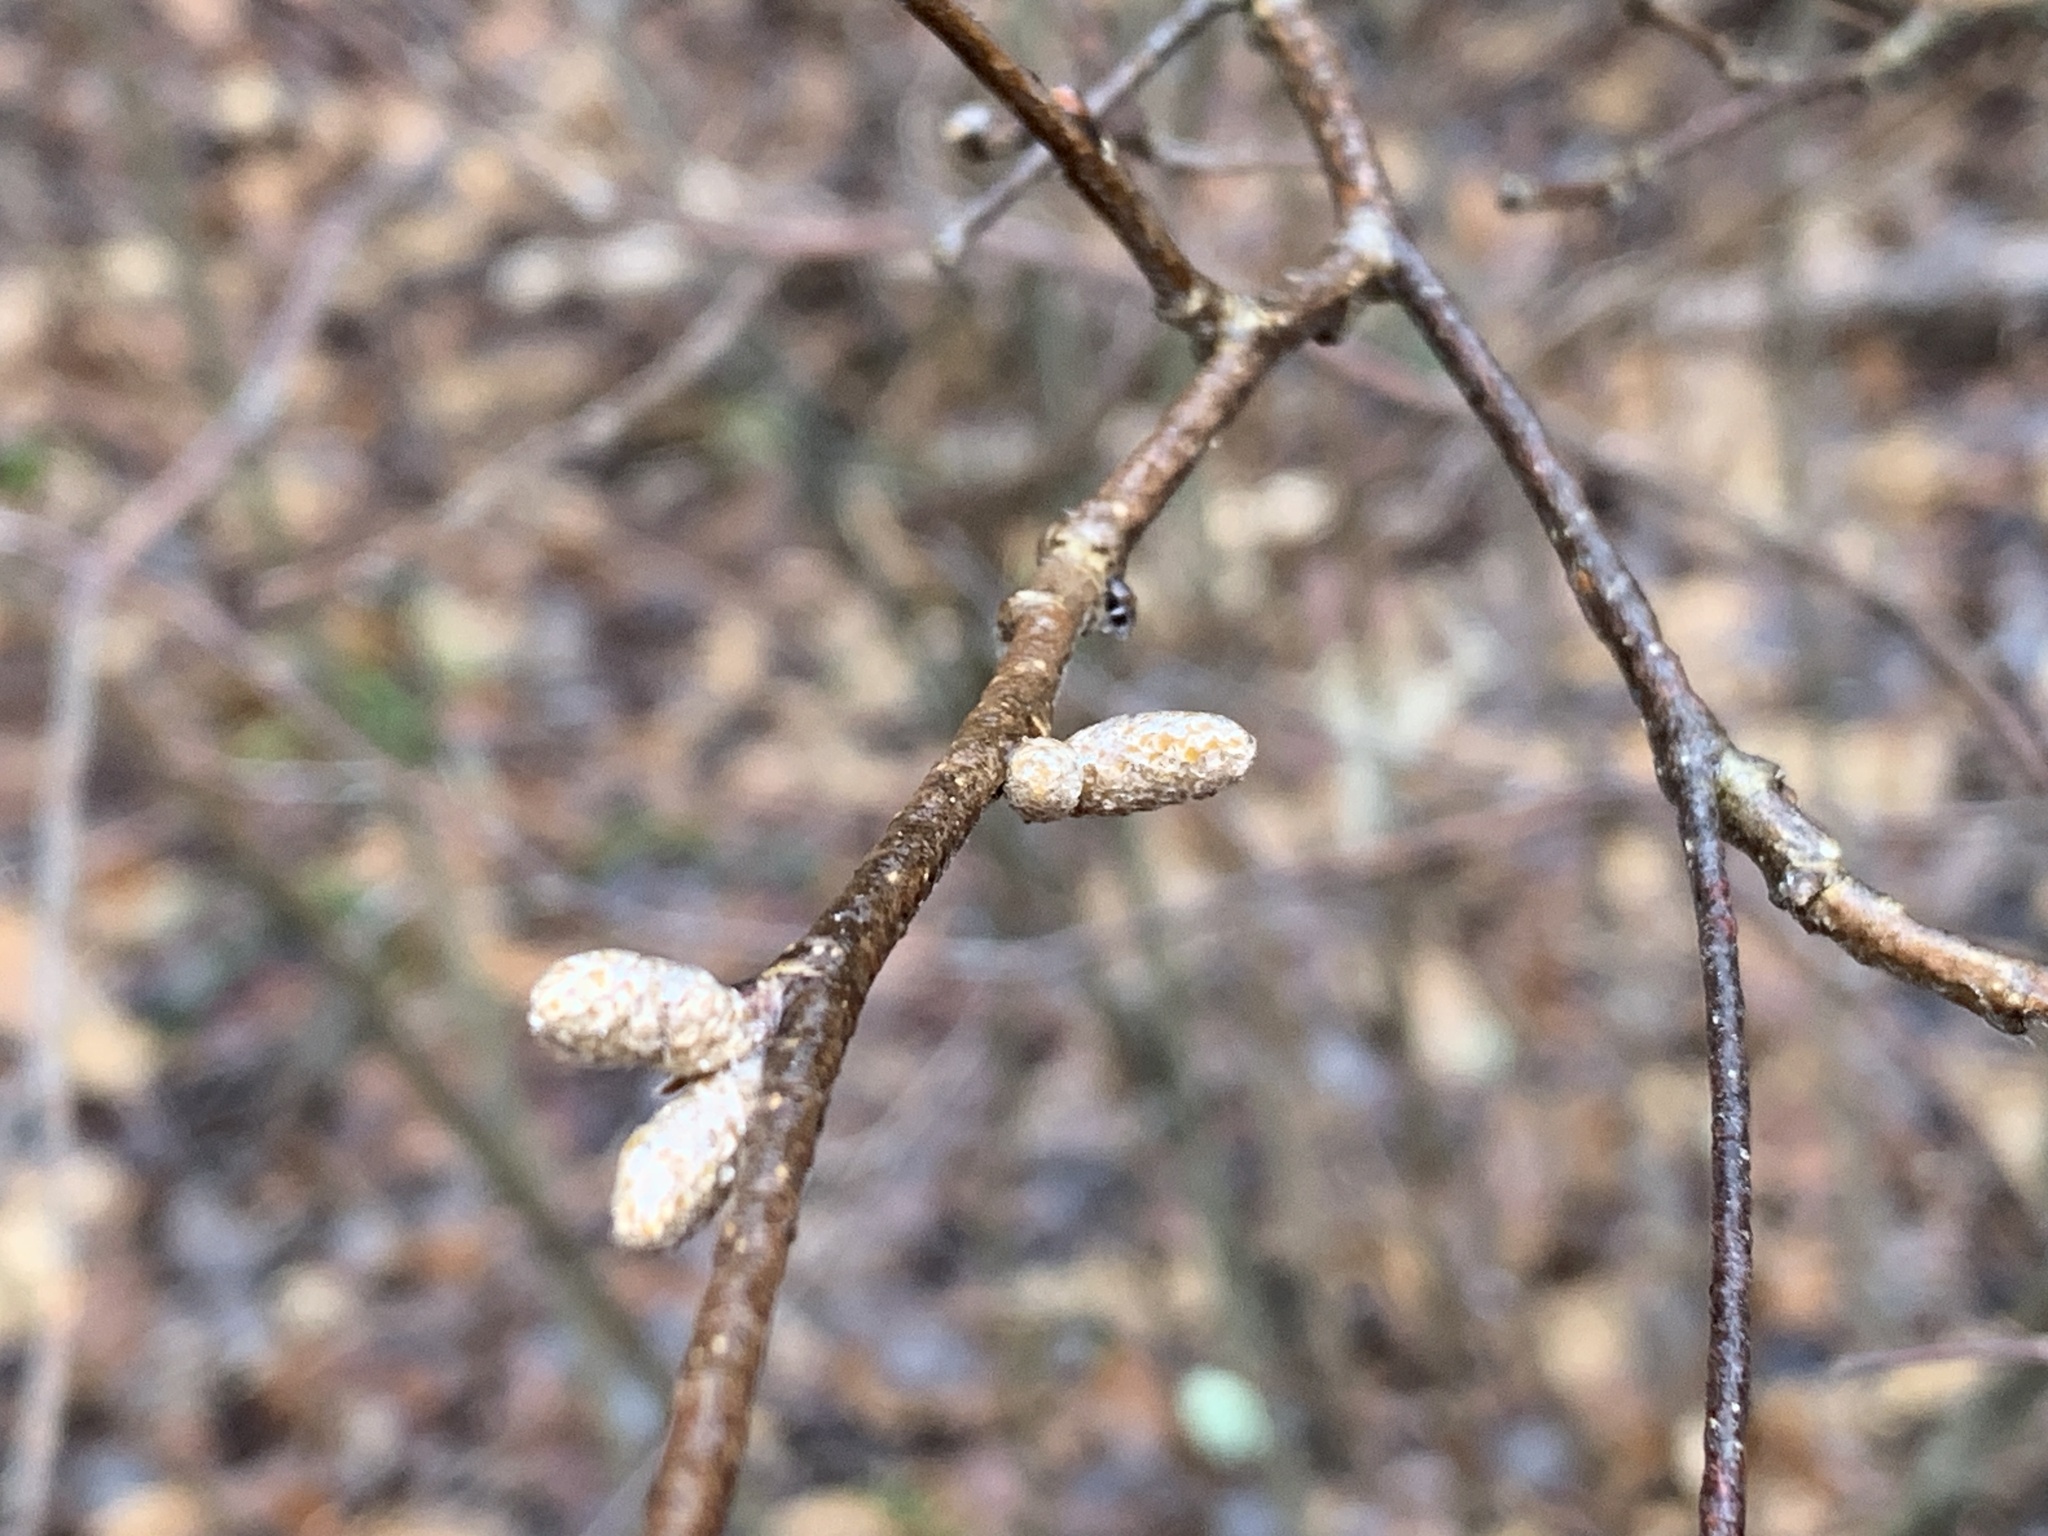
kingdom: Plantae
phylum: Tracheophyta
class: Magnoliopsida
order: Fagales
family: Betulaceae
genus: Corylus
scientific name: Corylus cornuta
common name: Beaked hazel
